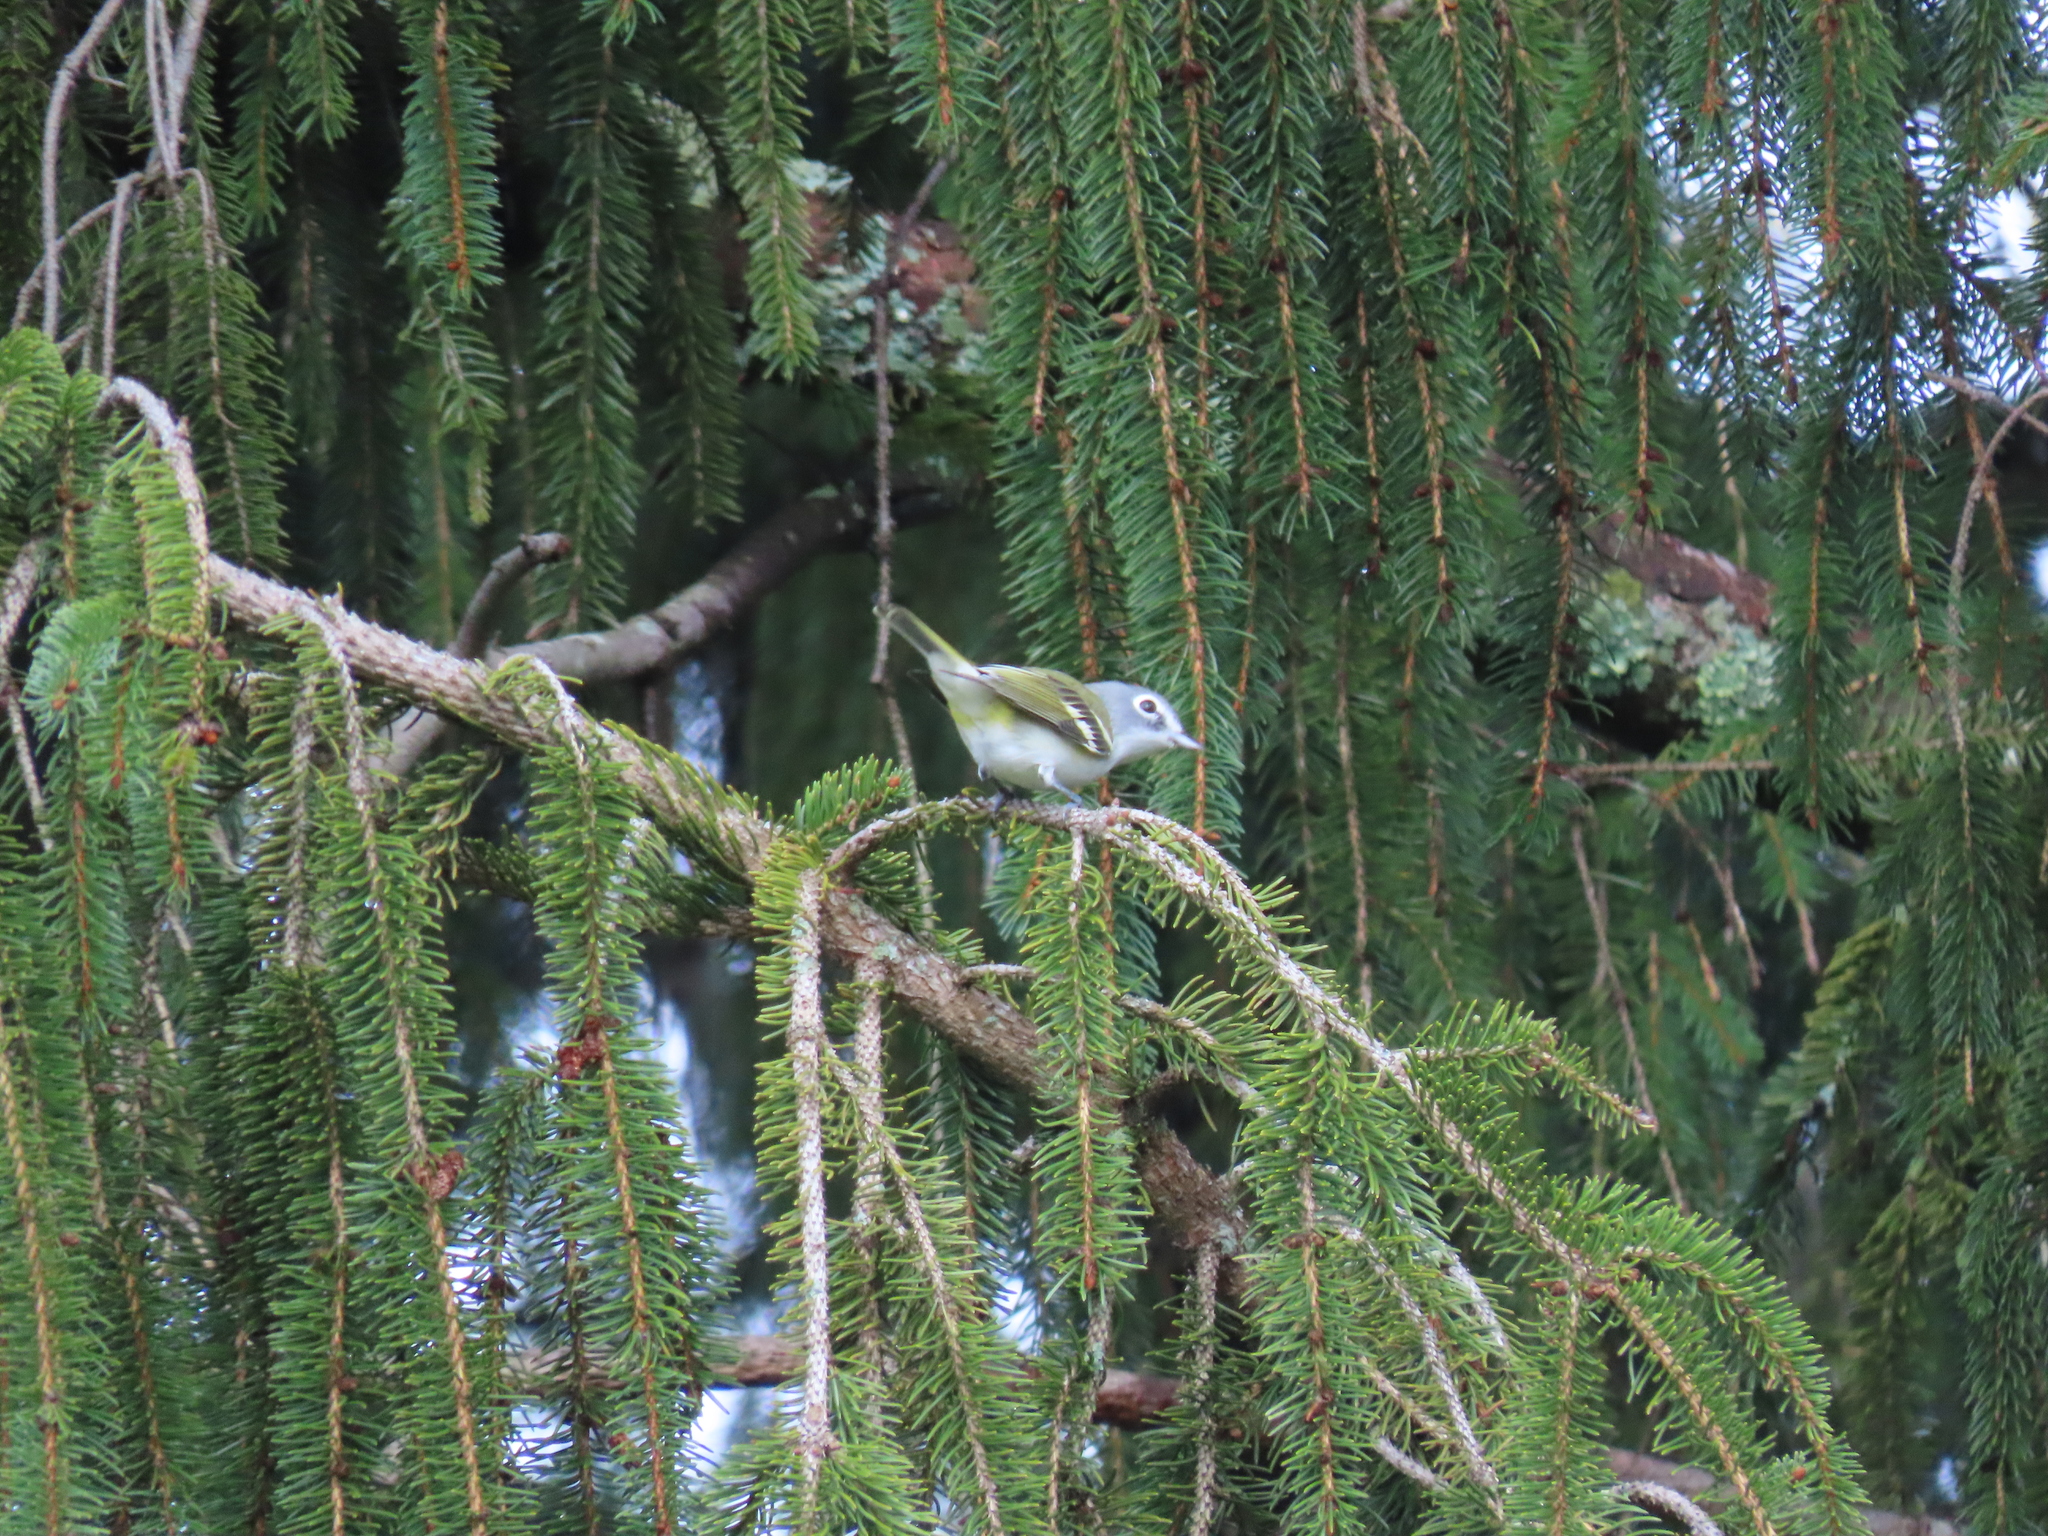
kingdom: Animalia
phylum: Chordata
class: Aves
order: Passeriformes
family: Vireonidae
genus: Vireo
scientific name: Vireo solitarius
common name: Blue-headed vireo
